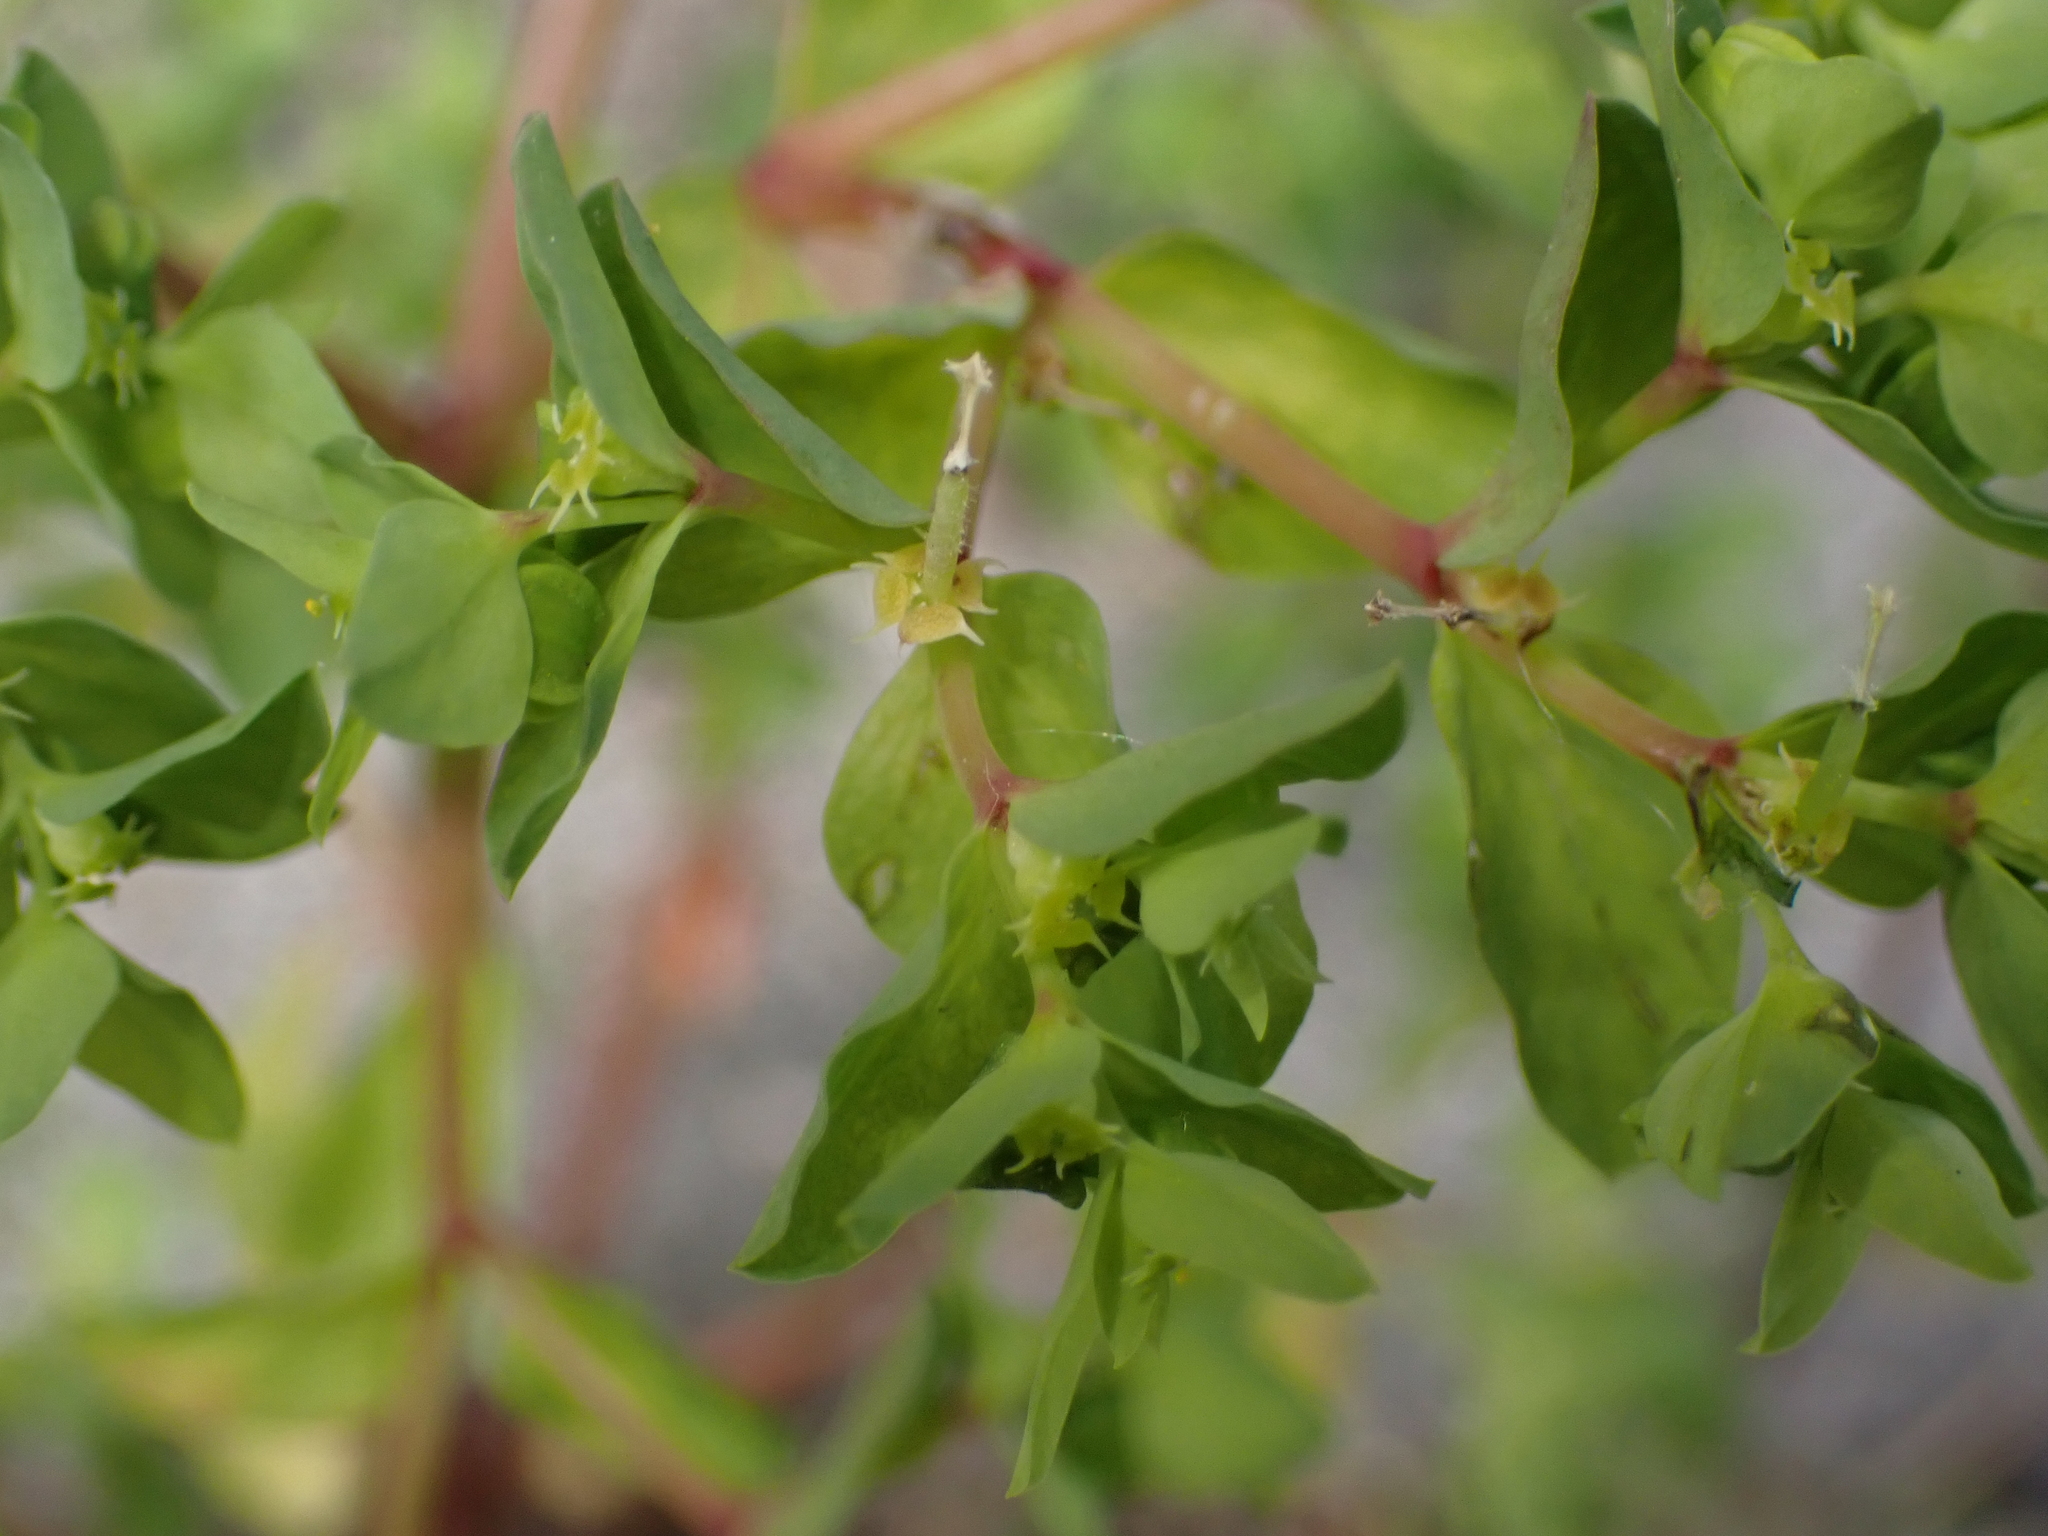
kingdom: Plantae
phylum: Tracheophyta
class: Magnoliopsida
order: Malpighiales
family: Euphorbiaceae
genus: Euphorbia
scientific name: Euphorbia peplus
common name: Petty spurge
